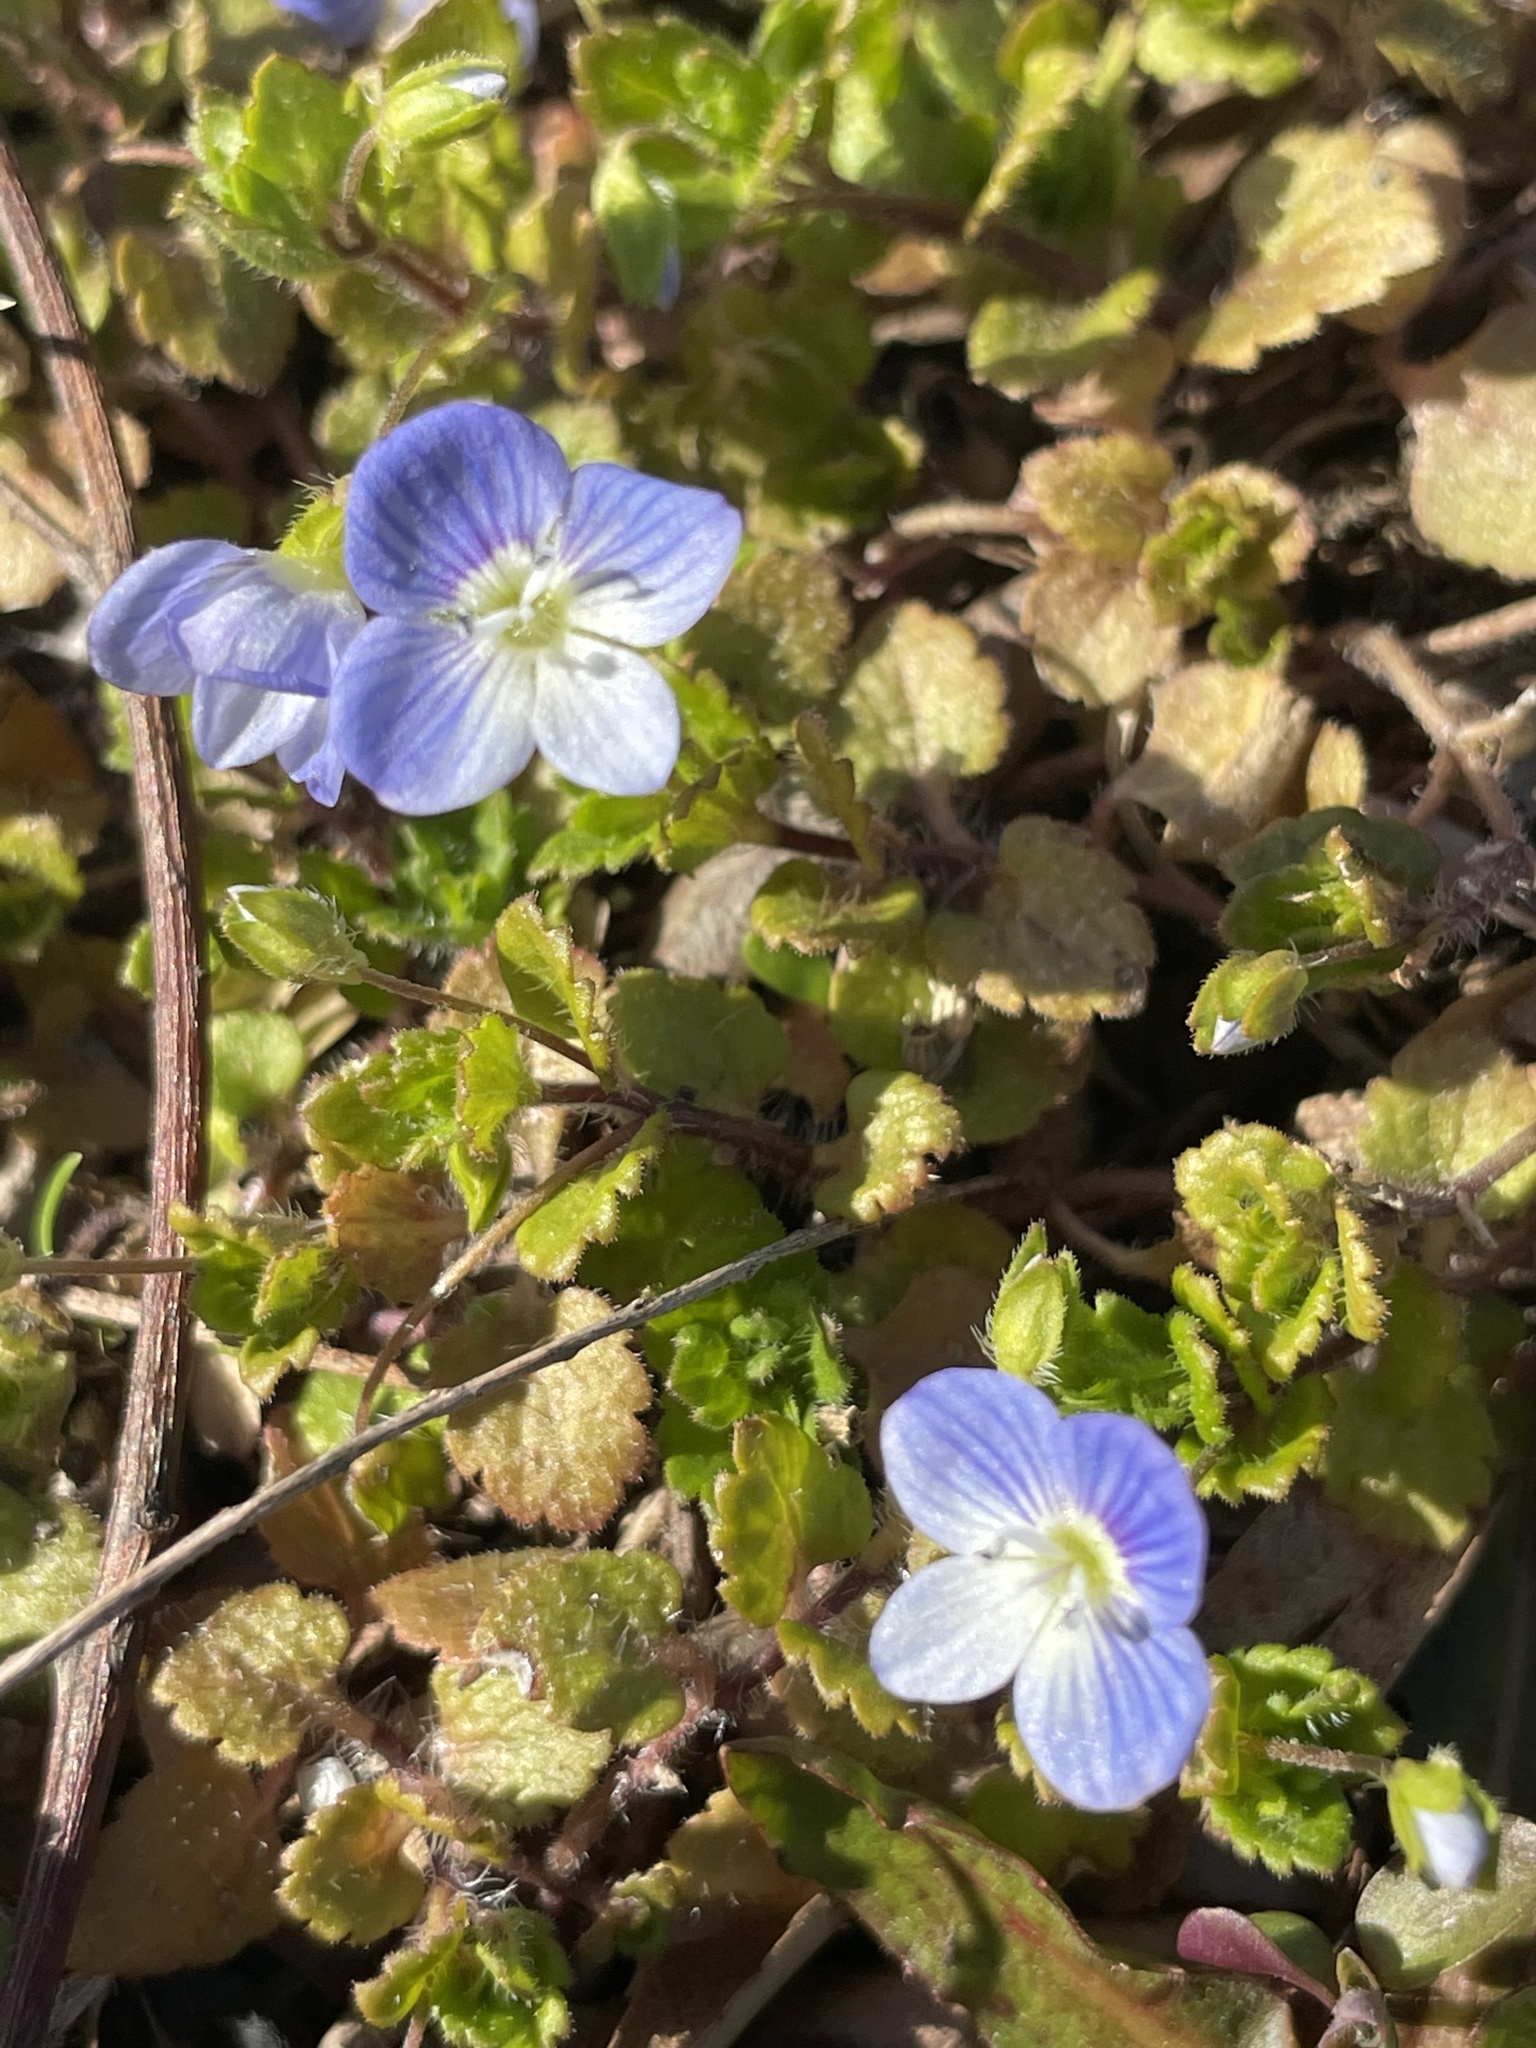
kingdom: Plantae
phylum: Tracheophyta
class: Magnoliopsida
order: Lamiales
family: Plantaginaceae
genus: Veronica
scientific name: Veronica persica
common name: Common field-speedwell
